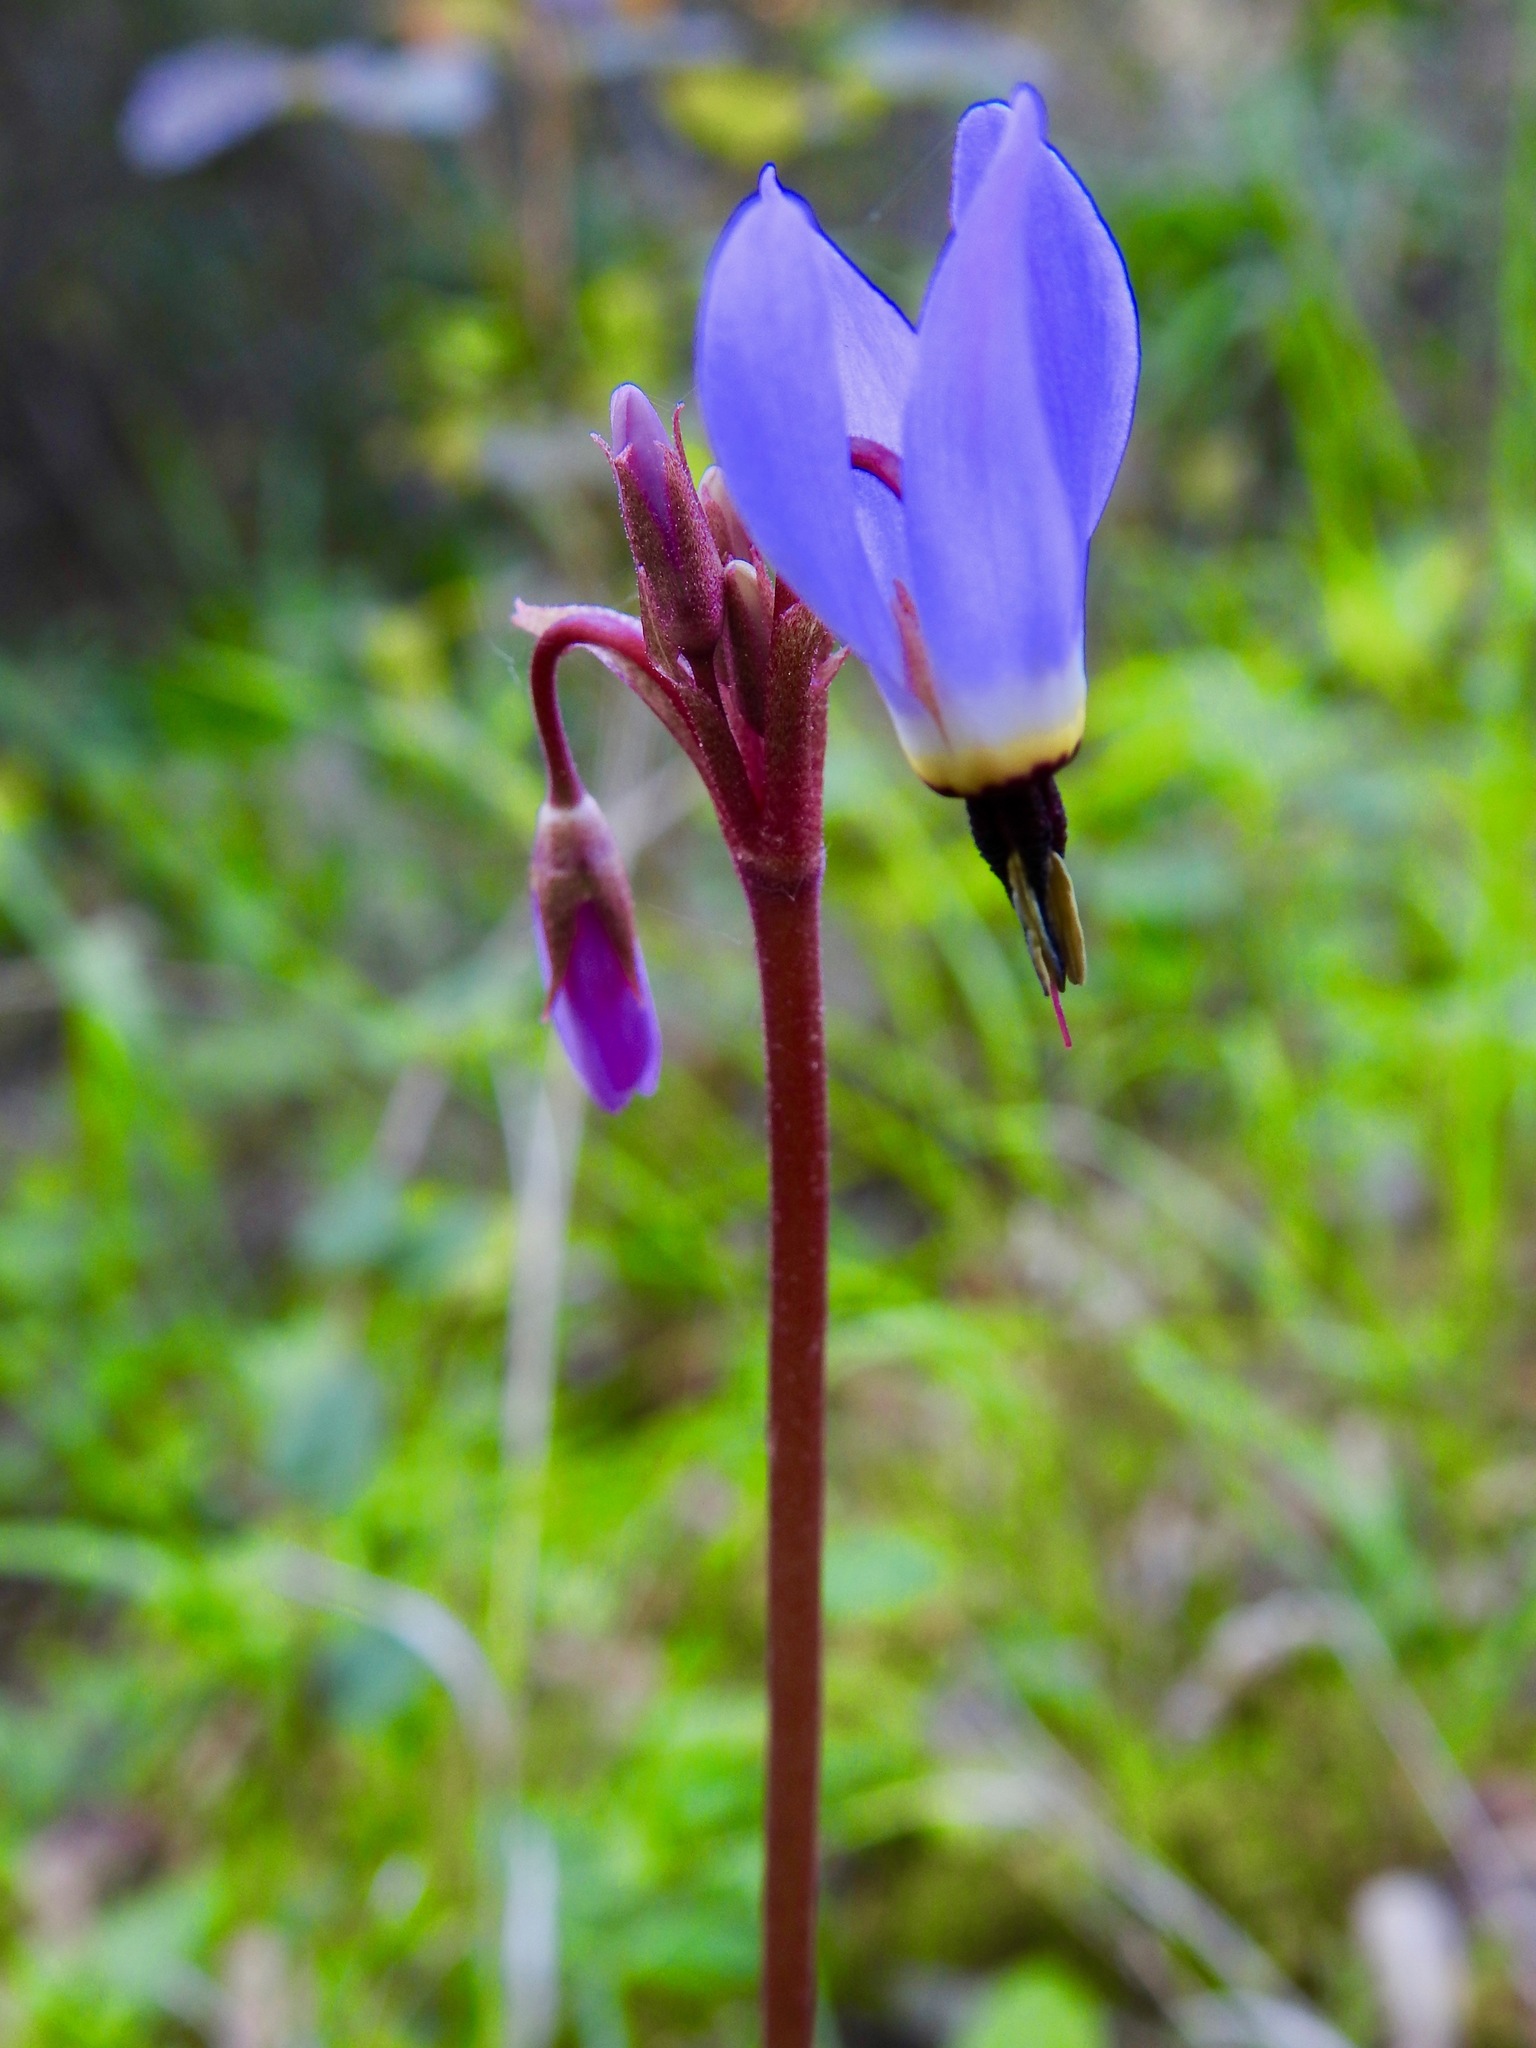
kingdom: Plantae
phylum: Tracheophyta
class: Magnoliopsida
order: Ericales
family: Primulaceae
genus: Dodecatheon
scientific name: Dodecatheon hendersonii
